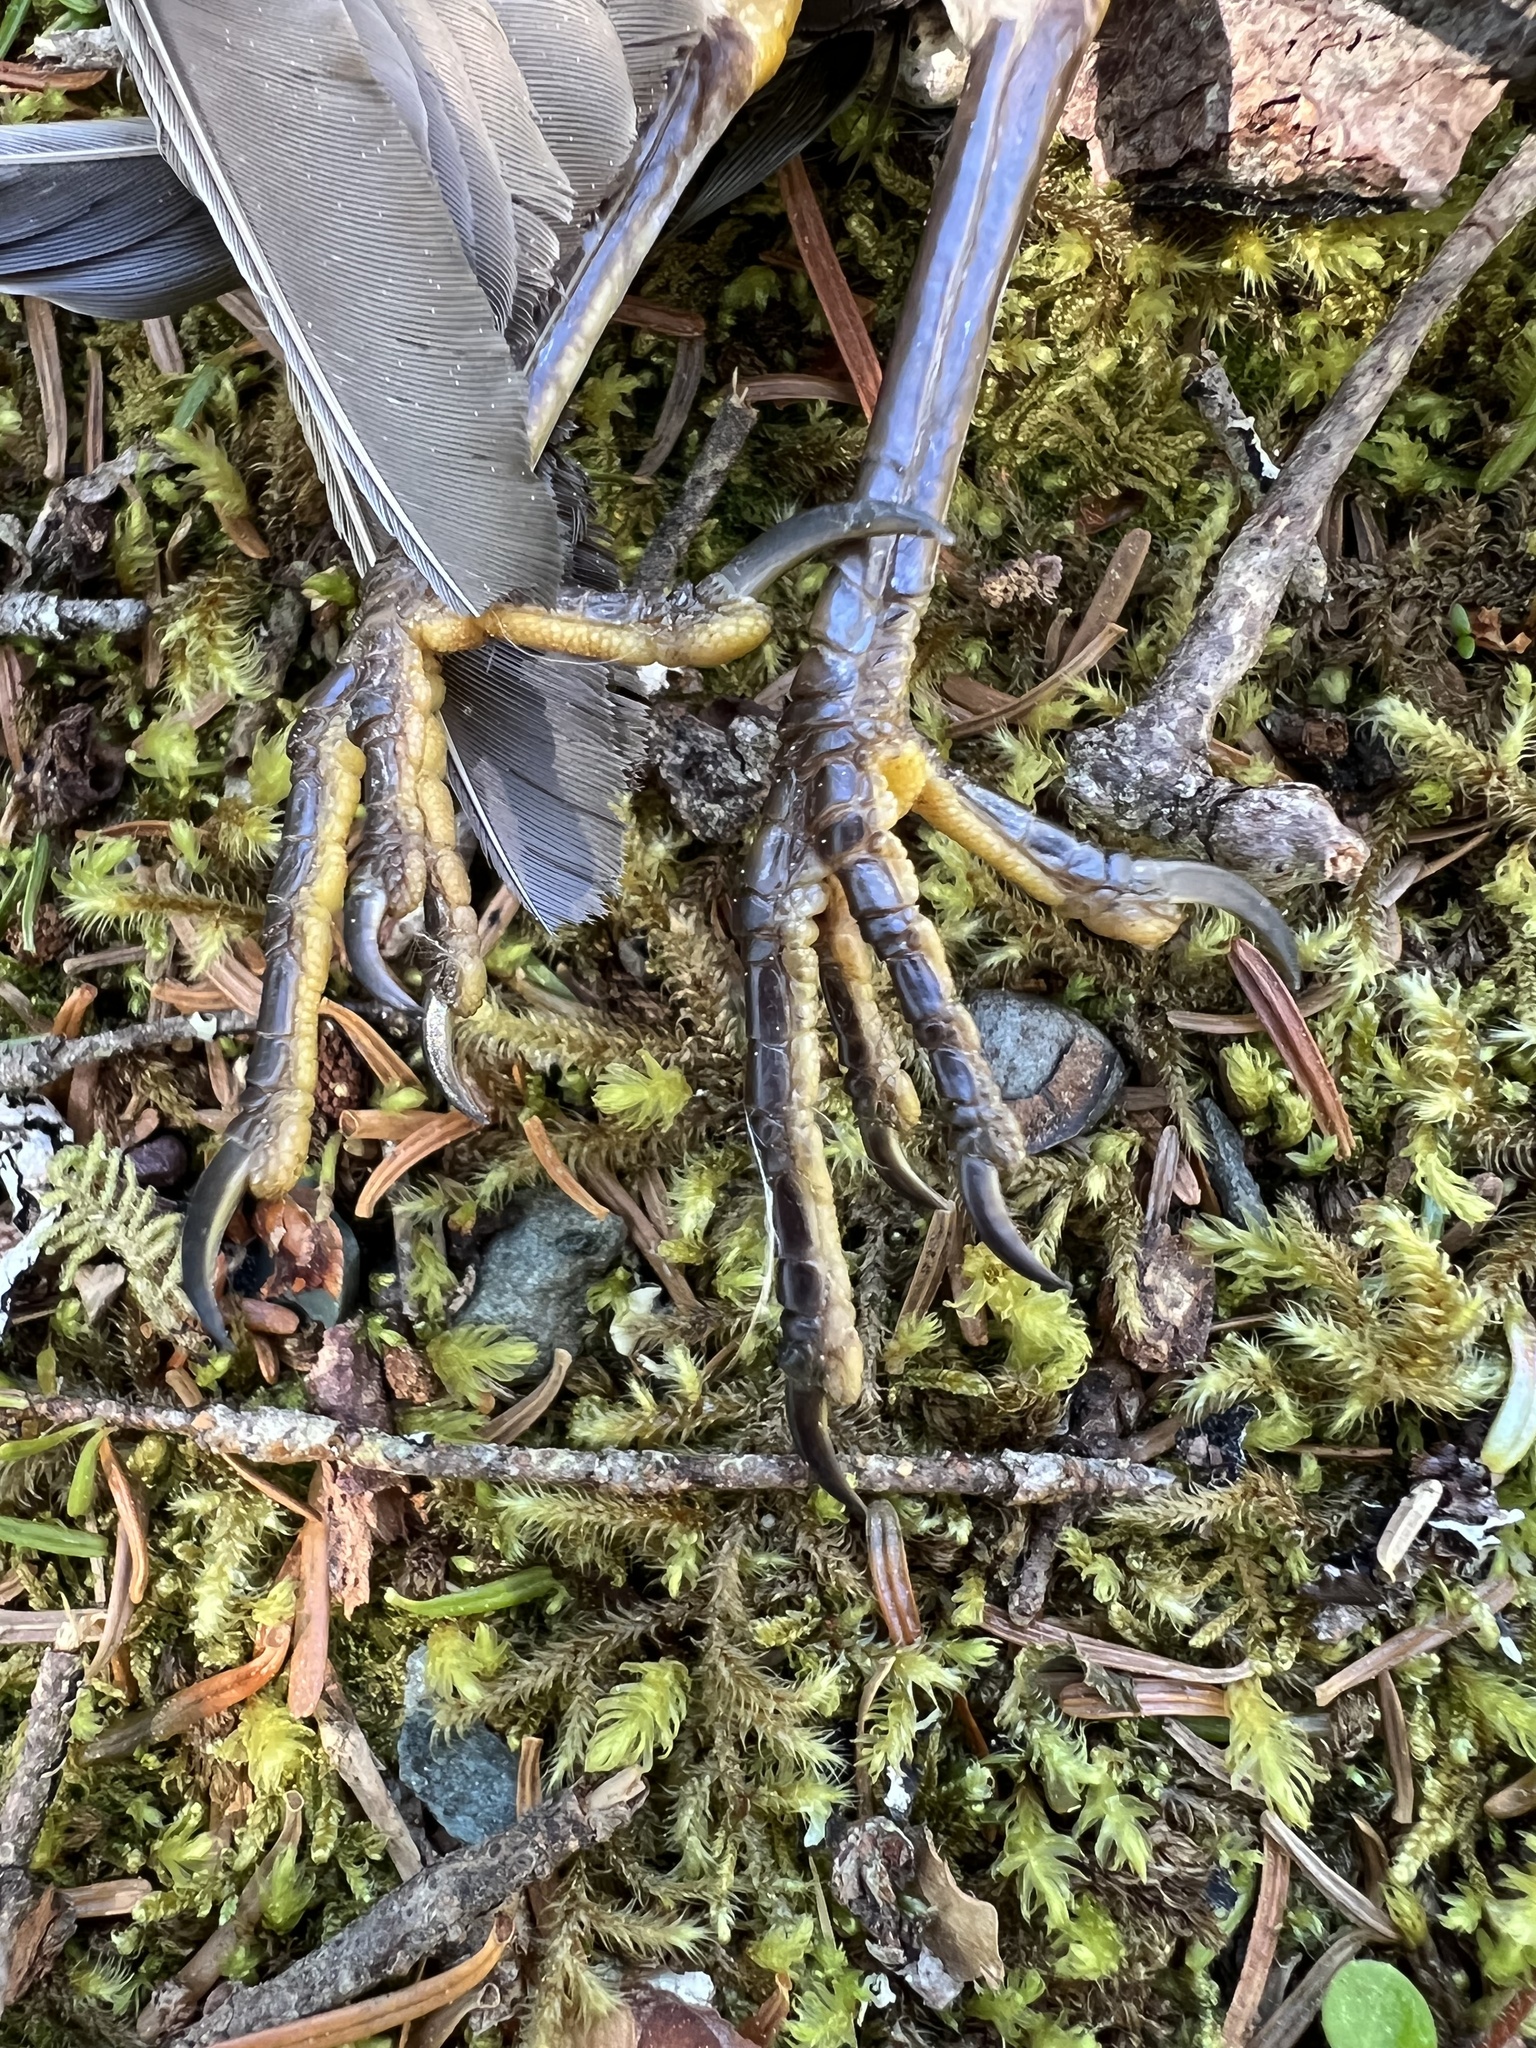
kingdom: Animalia
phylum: Chordata
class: Aves
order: Passeriformes
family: Turdidae
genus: Turdus
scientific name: Turdus migratorius
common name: American robin
